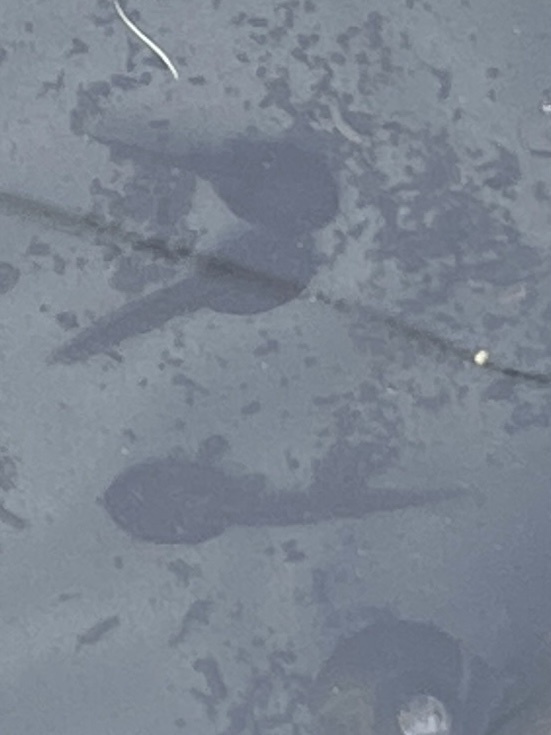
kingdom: Animalia
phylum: Chordata
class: Amphibia
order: Anura
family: Ranidae
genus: Rana
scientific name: Rana temporaria
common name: Common frog
